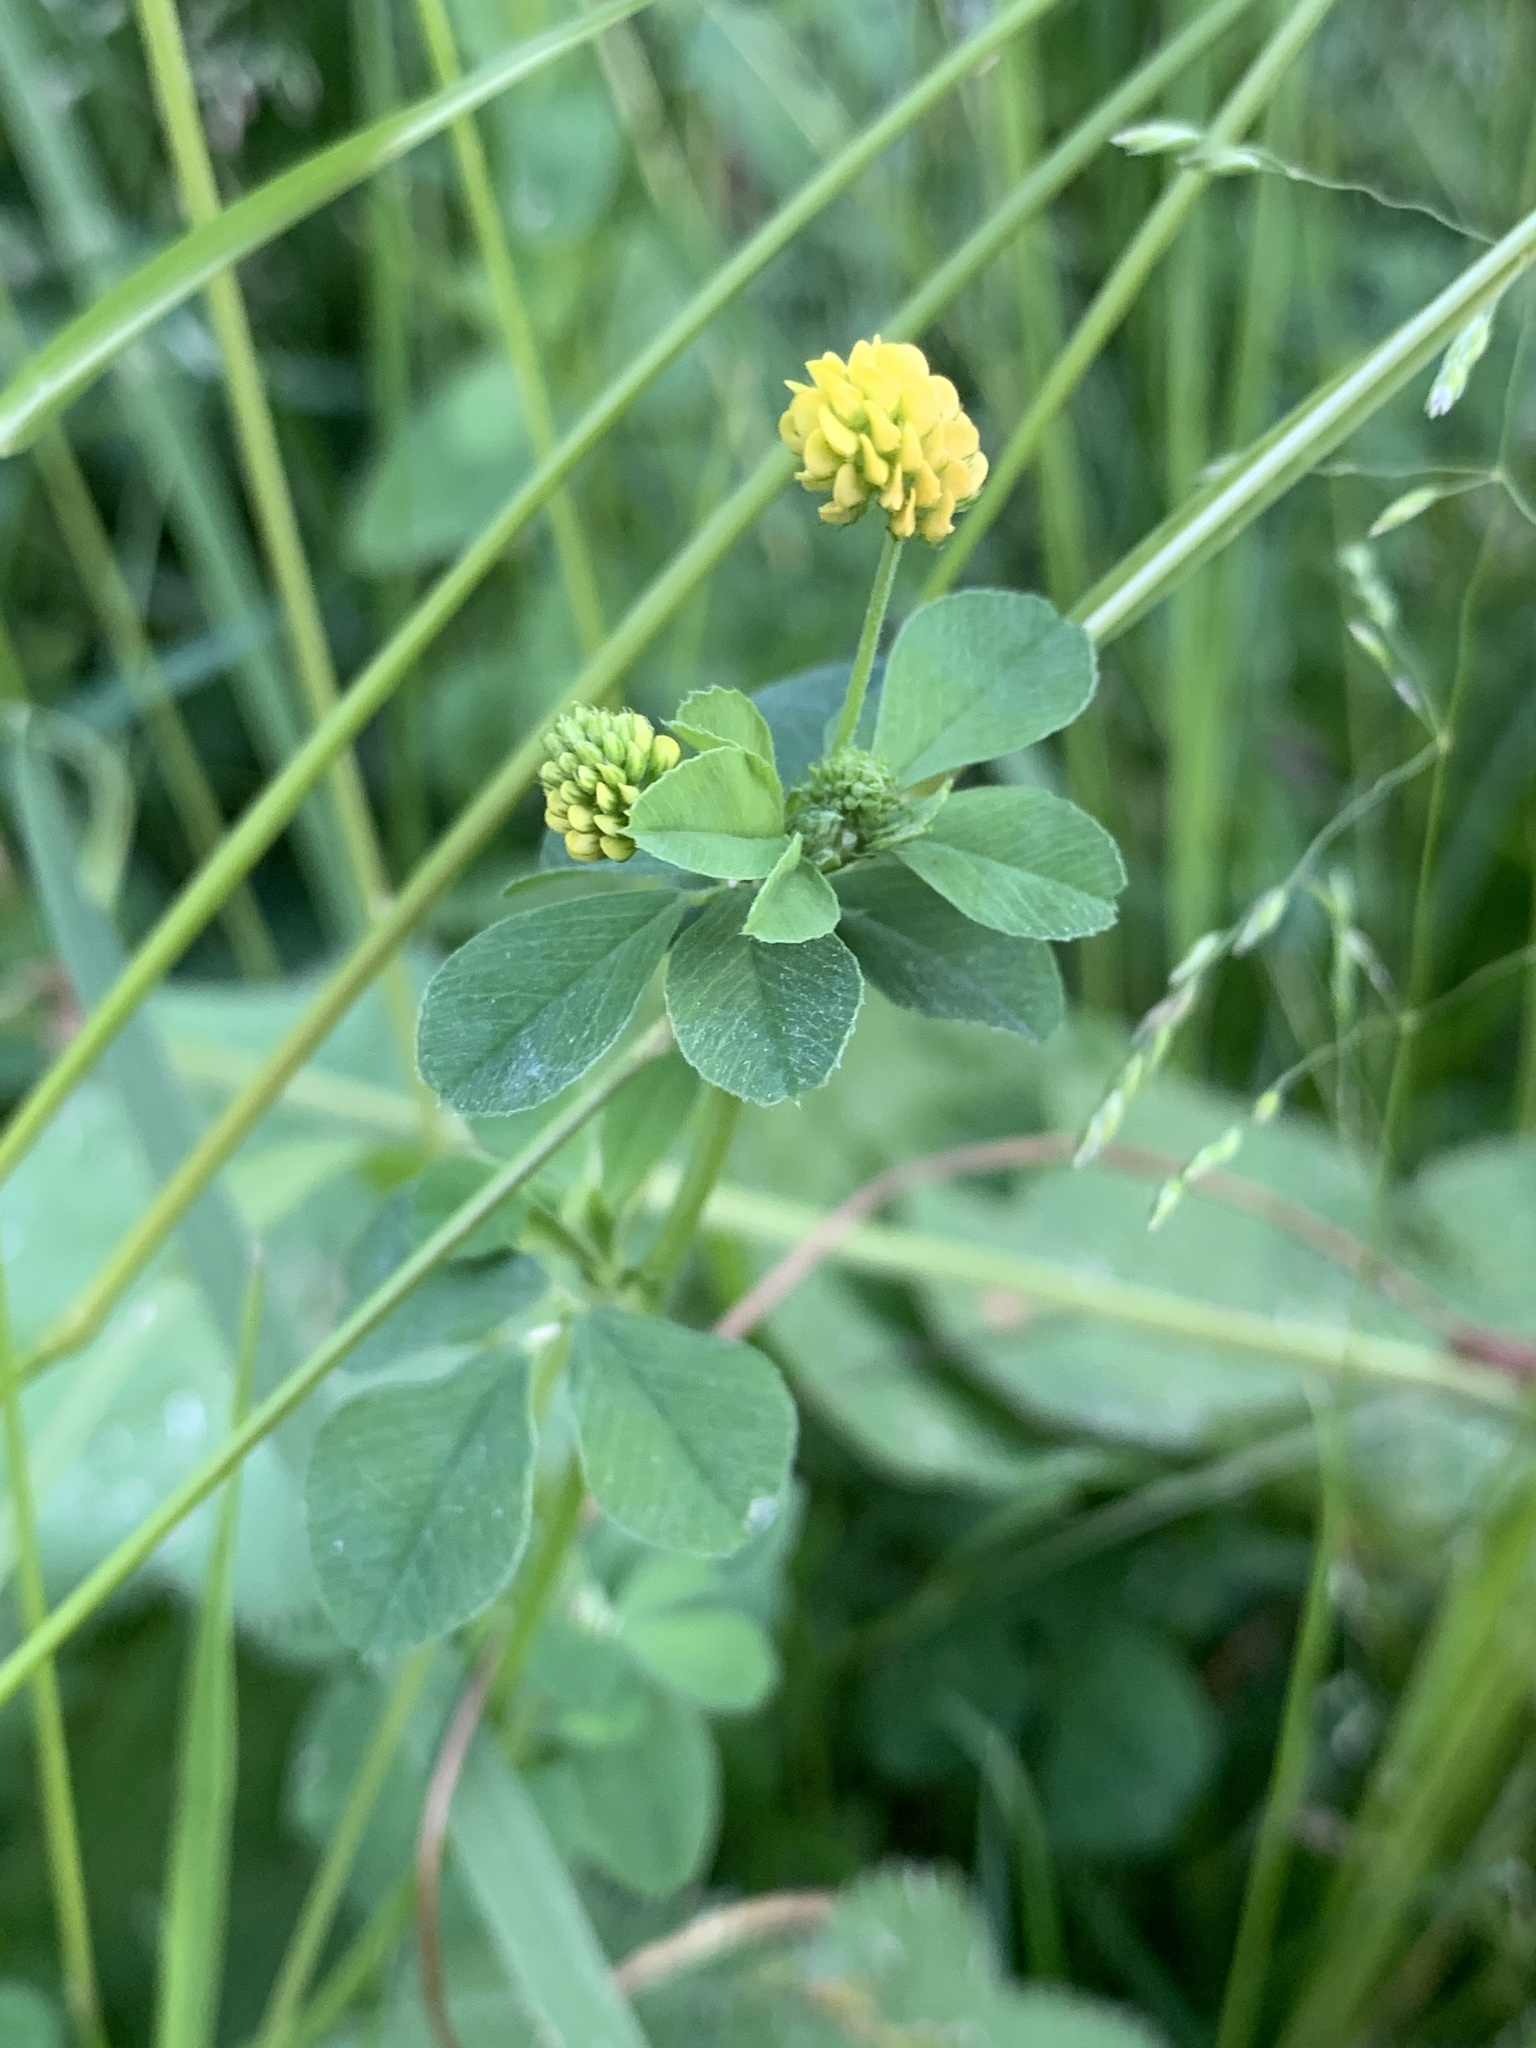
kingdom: Plantae
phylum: Tracheophyta
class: Magnoliopsida
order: Fabales
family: Fabaceae
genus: Medicago
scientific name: Medicago lupulina
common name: Black medick
